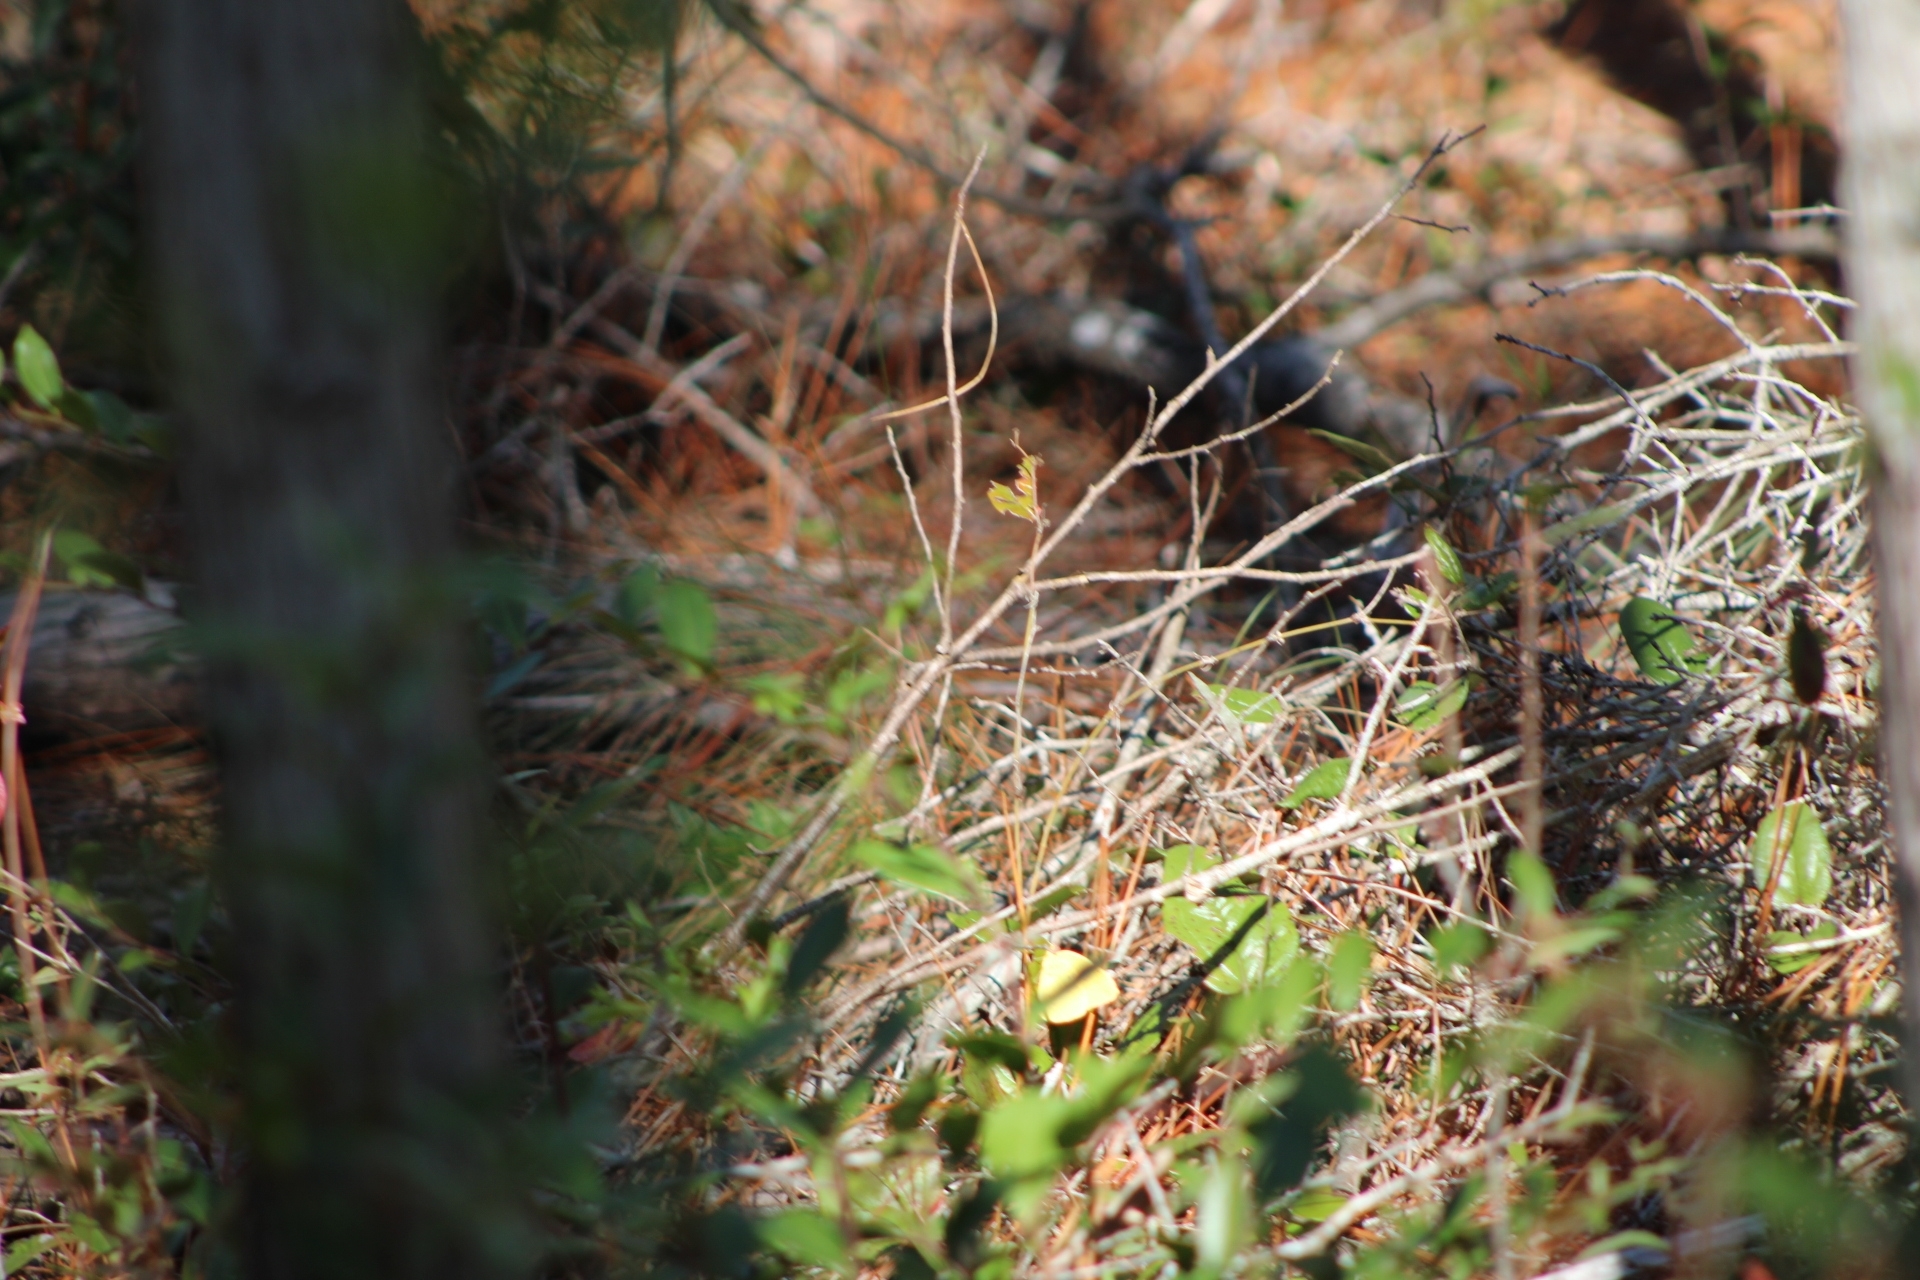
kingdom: Animalia
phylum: Arthropoda
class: Insecta
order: Lepidoptera
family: Pieridae
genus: Phoebis
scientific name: Phoebis sennae
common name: Cloudless sulphur
